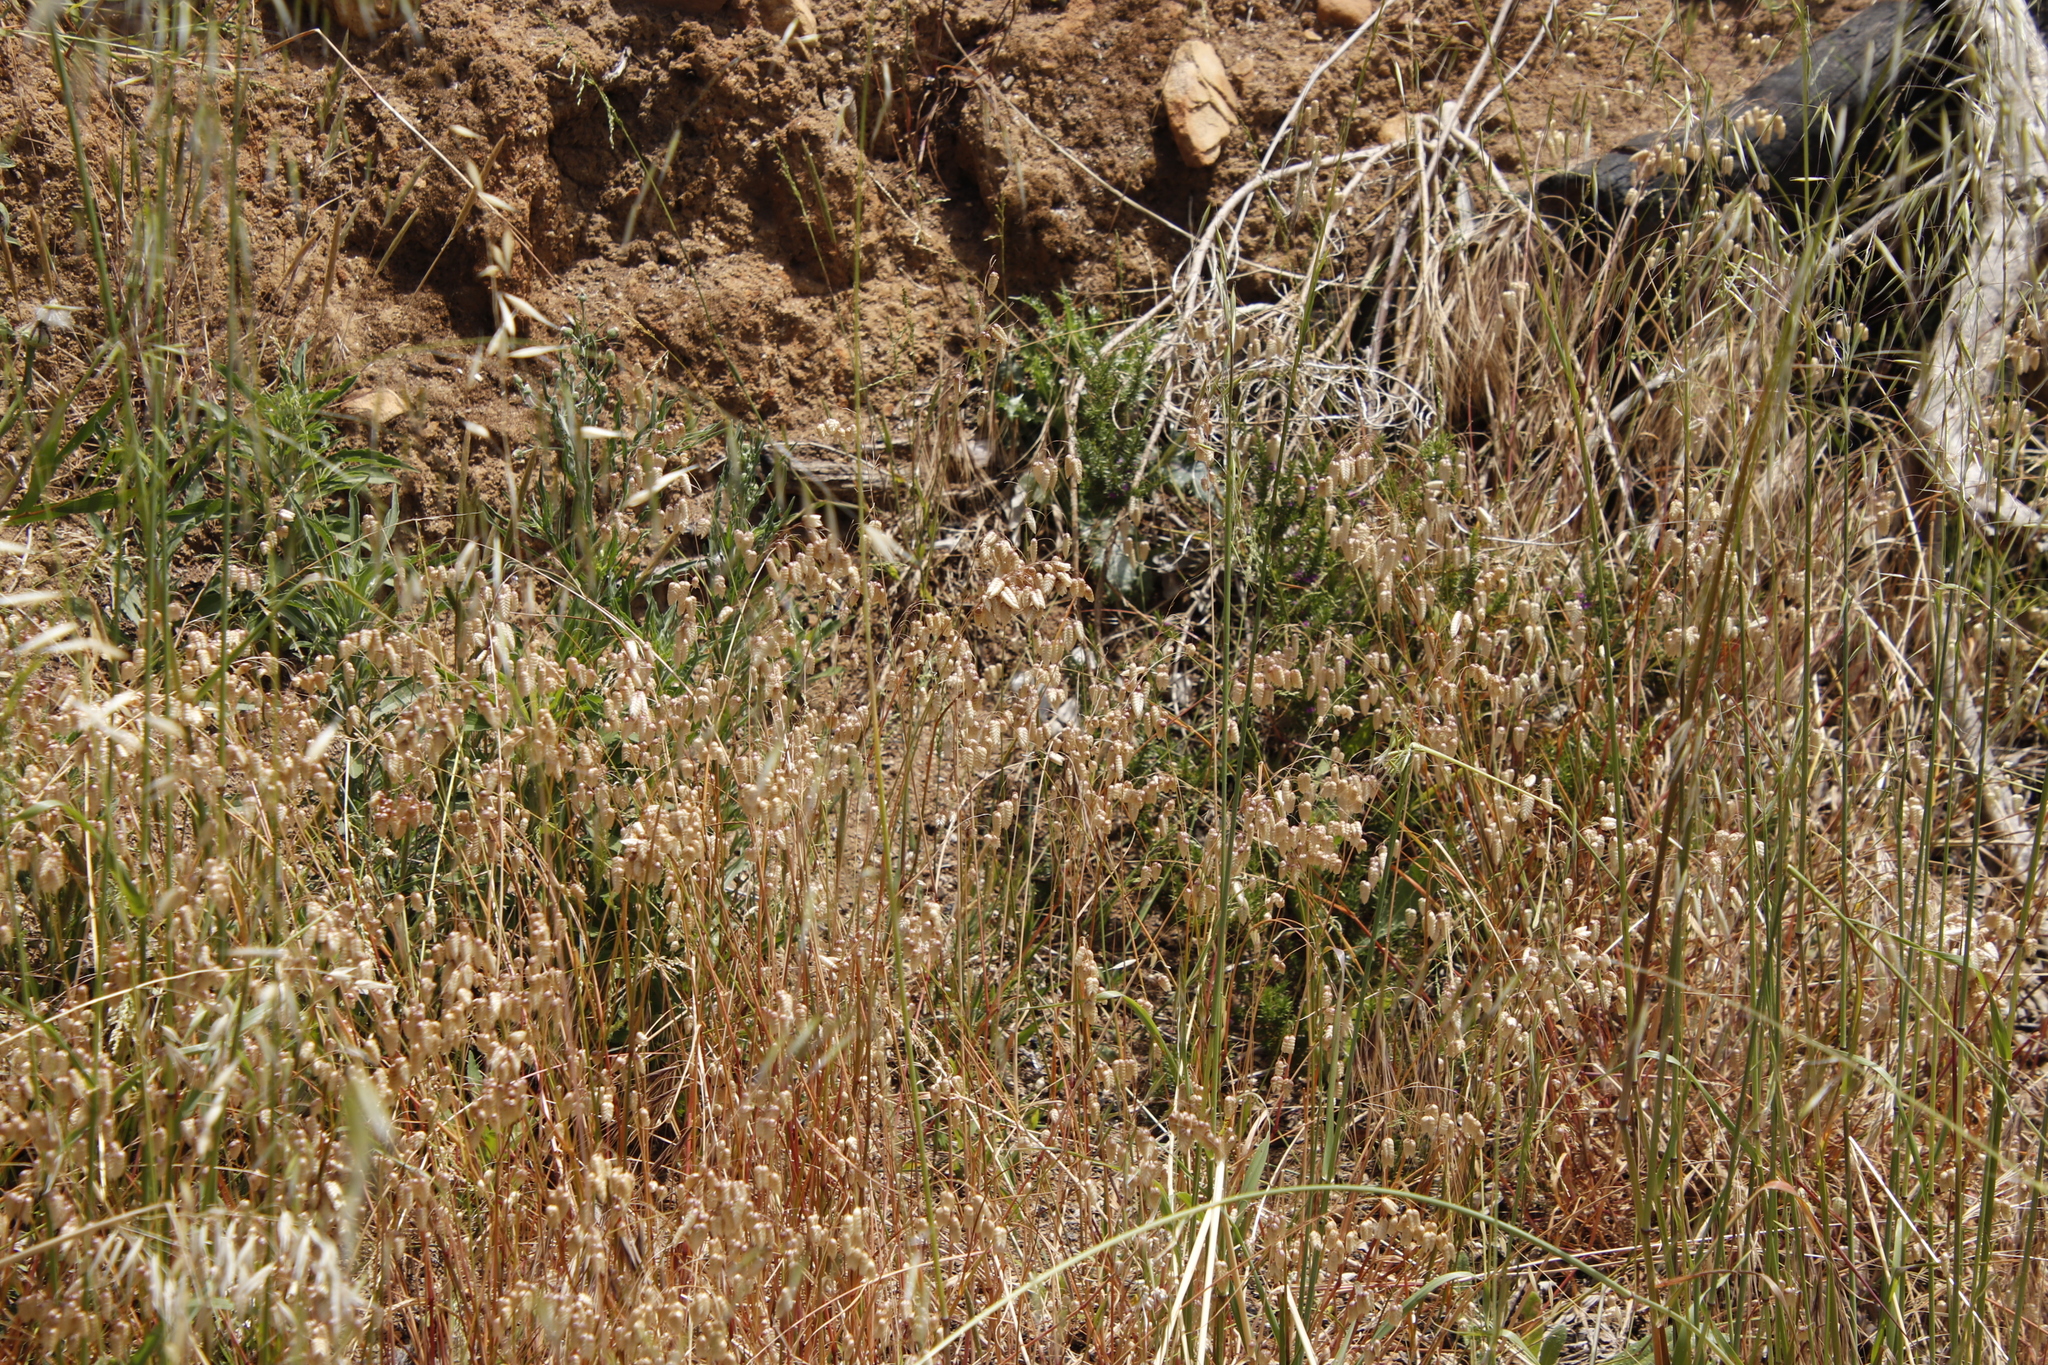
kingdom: Plantae
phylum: Tracheophyta
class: Liliopsida
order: Poales
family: Poaceae
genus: Briza
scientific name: Briza maxima
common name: Big quakinggrass
